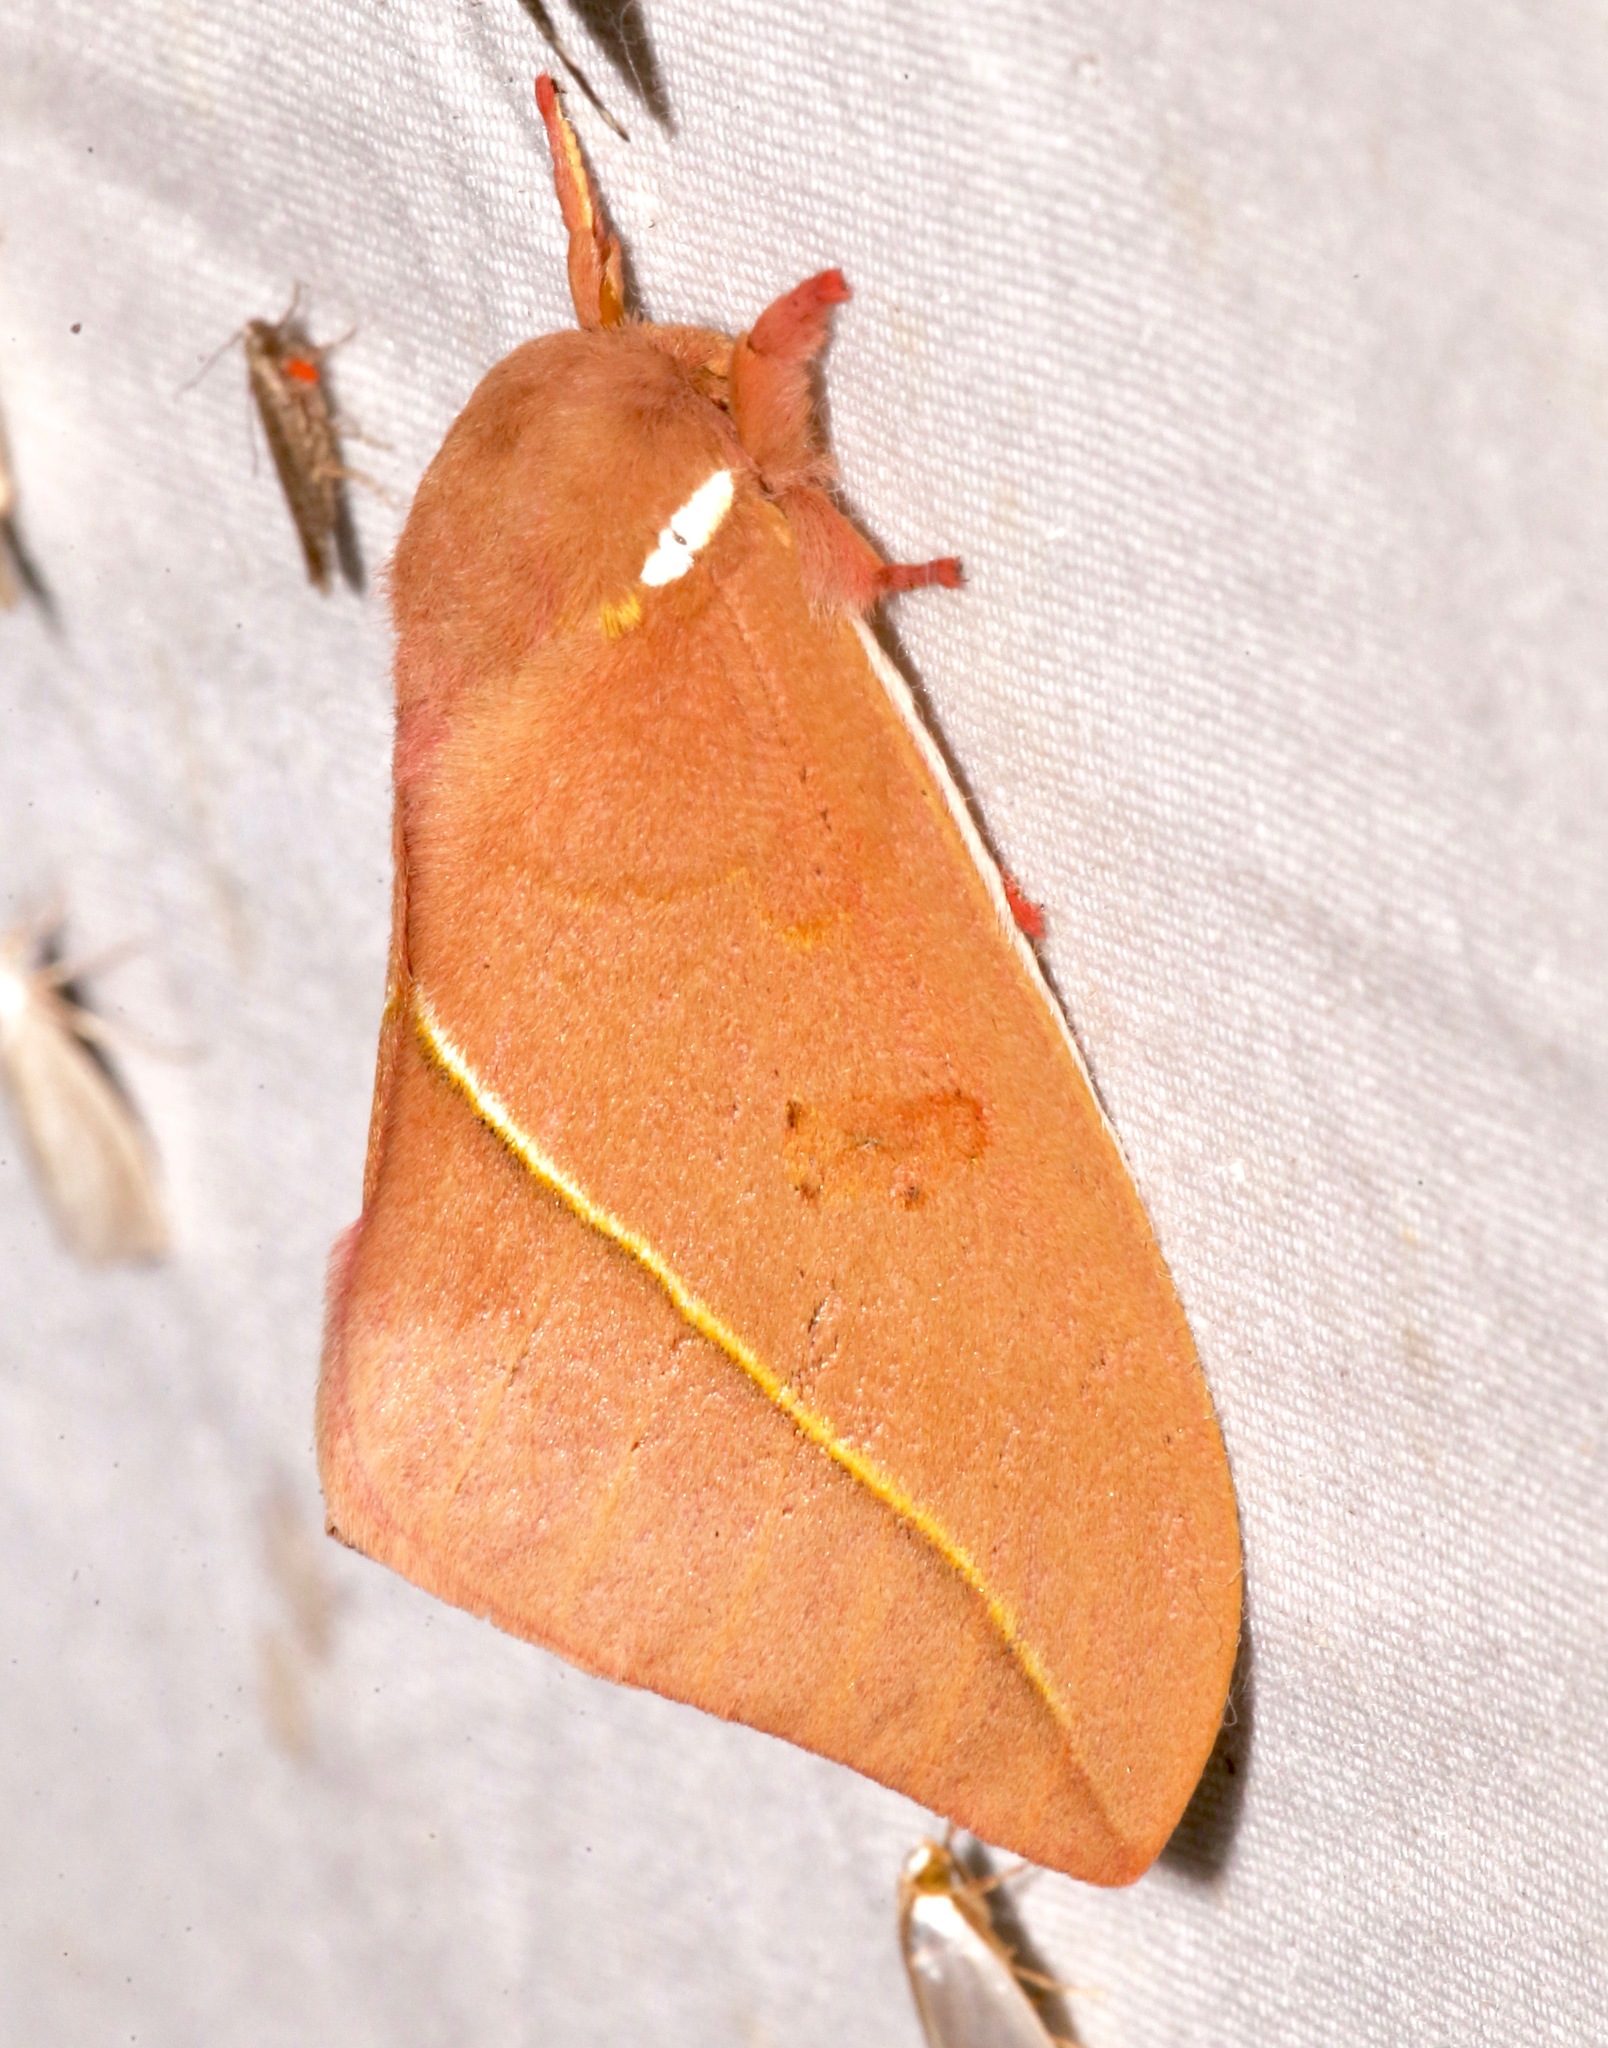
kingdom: Animalia
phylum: Arthropoda
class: Insecta
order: Lepidoptera
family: Saturniidae
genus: Automeris
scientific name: Automeris cecrops
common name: Cecrops eyed silkmoth
